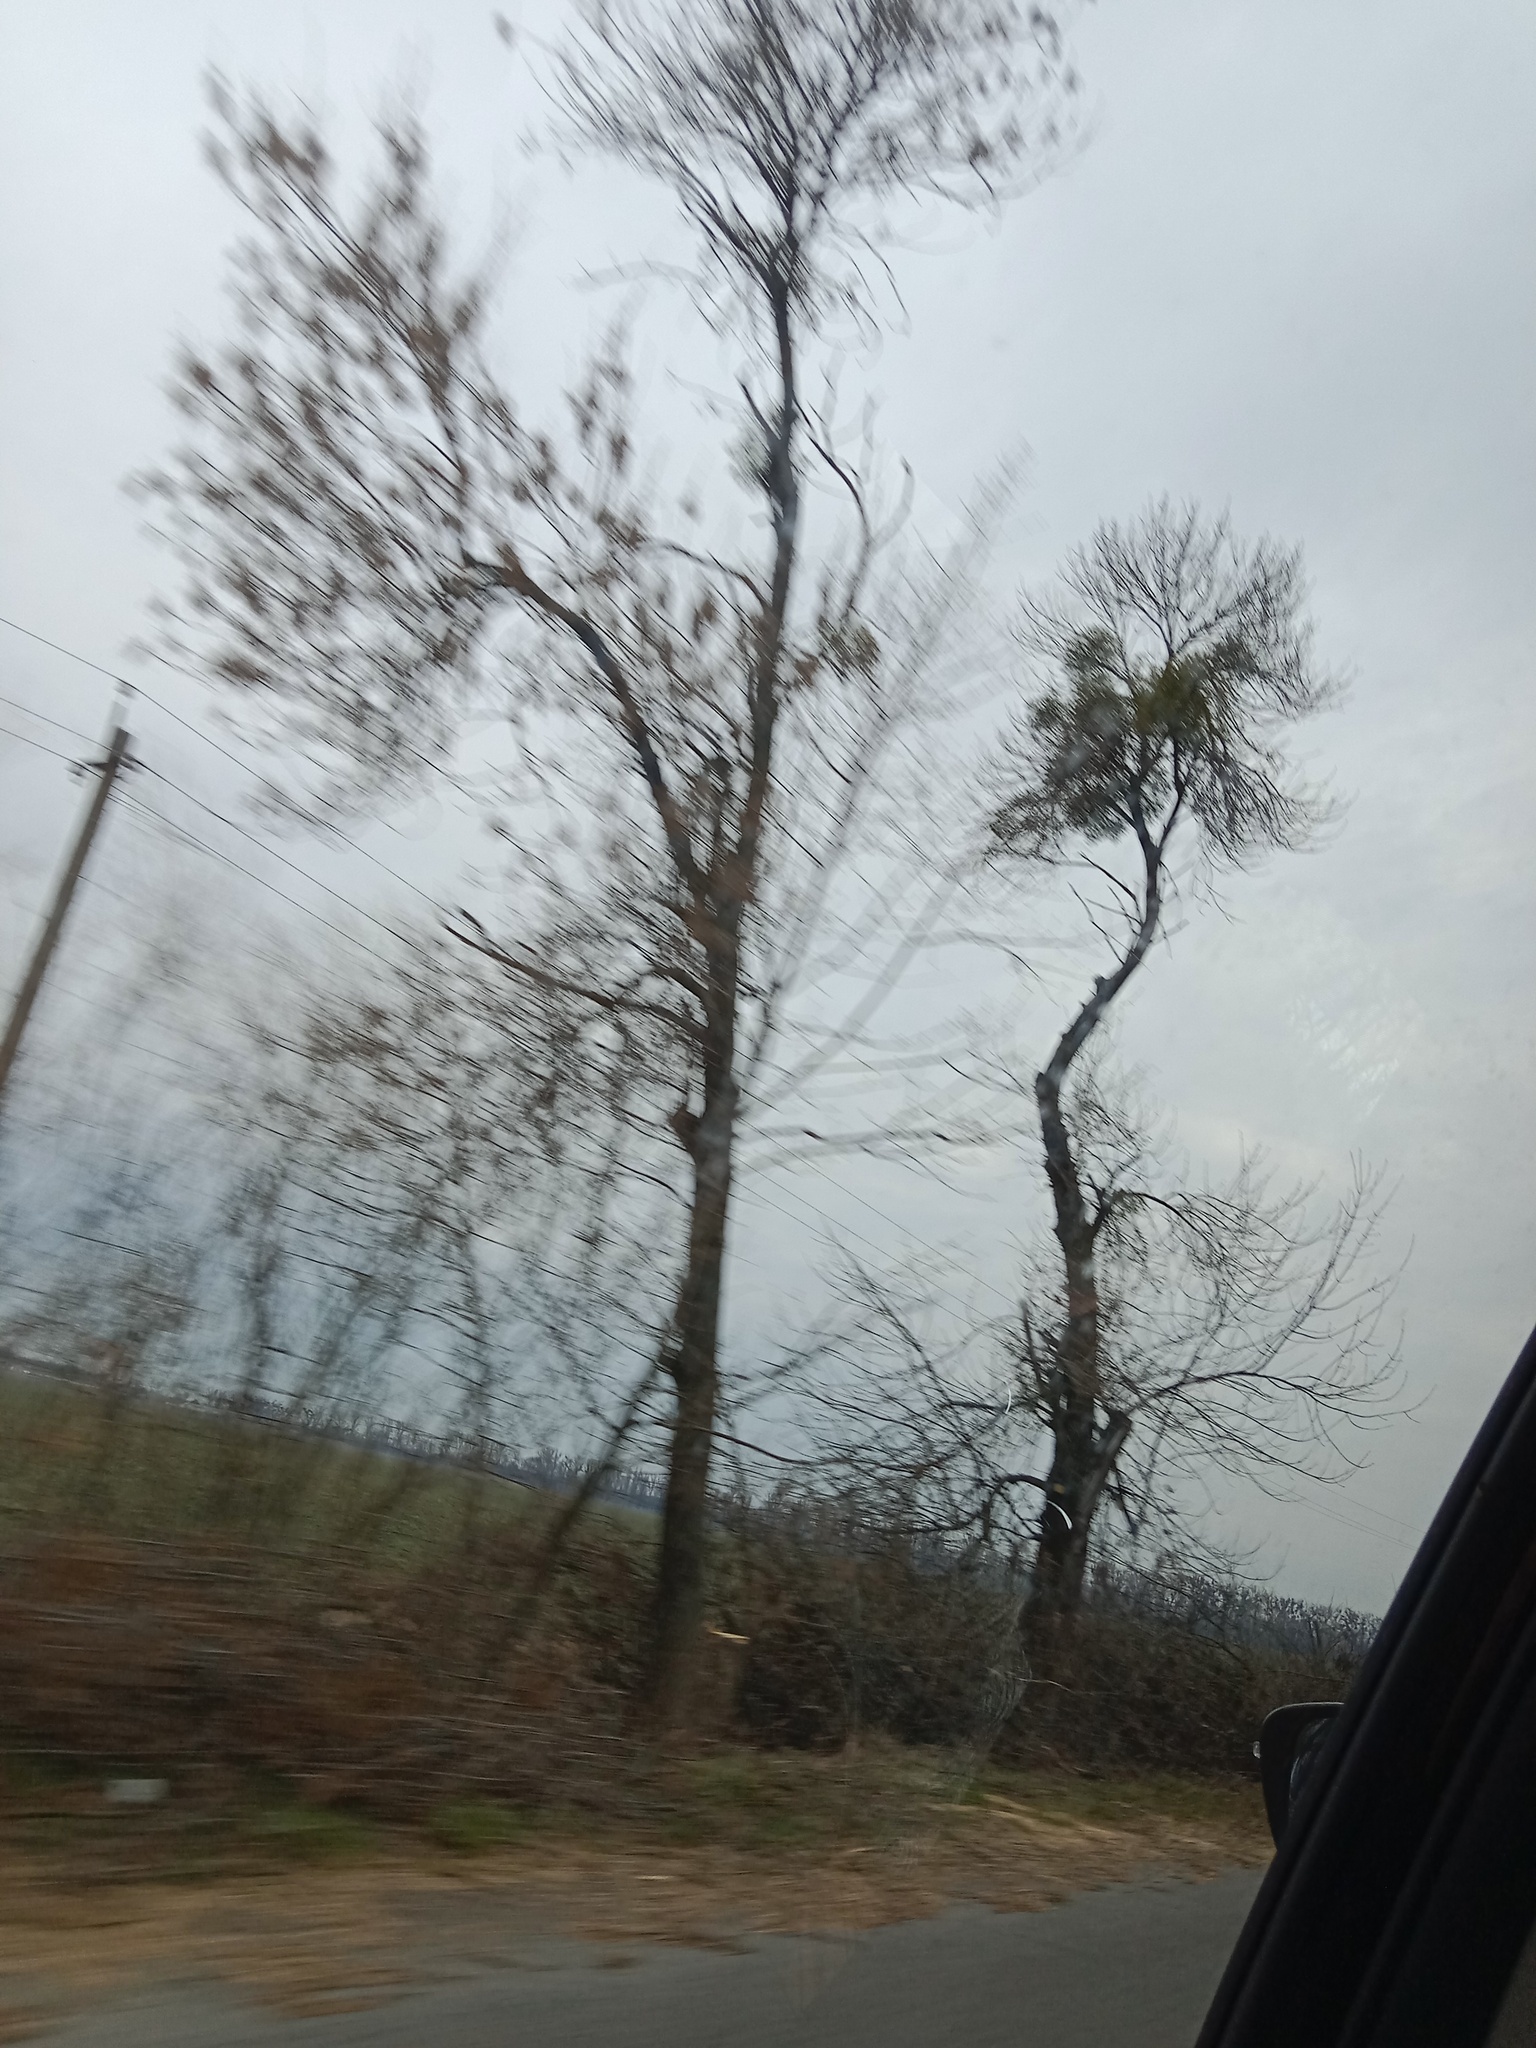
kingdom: Plantae
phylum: Tracheophyta
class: Magnoliopsida
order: Santalales
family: Viscaceae
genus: Viscum
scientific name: Viscum album
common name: Mistletoe
